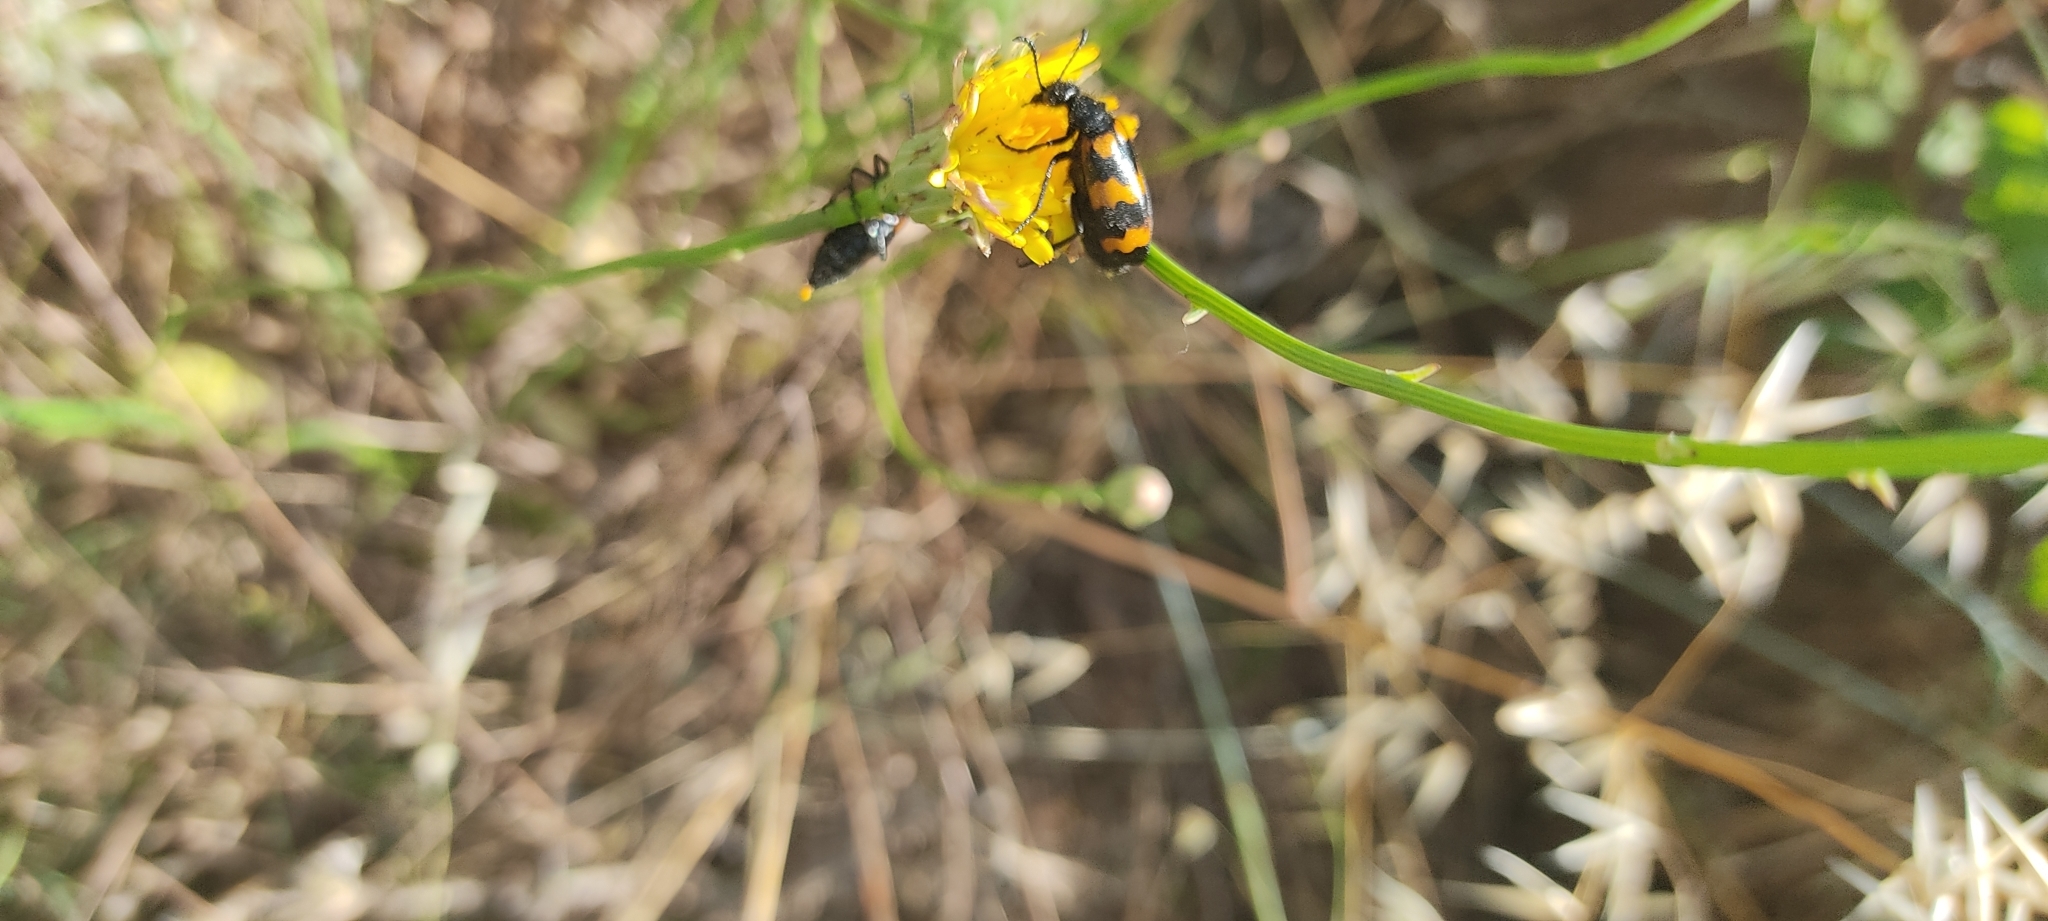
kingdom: Animalia
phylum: Arthropoda
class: Insecta
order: Coleoptera
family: Meloidae
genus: Mylabris
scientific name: Mylabris variabilis
